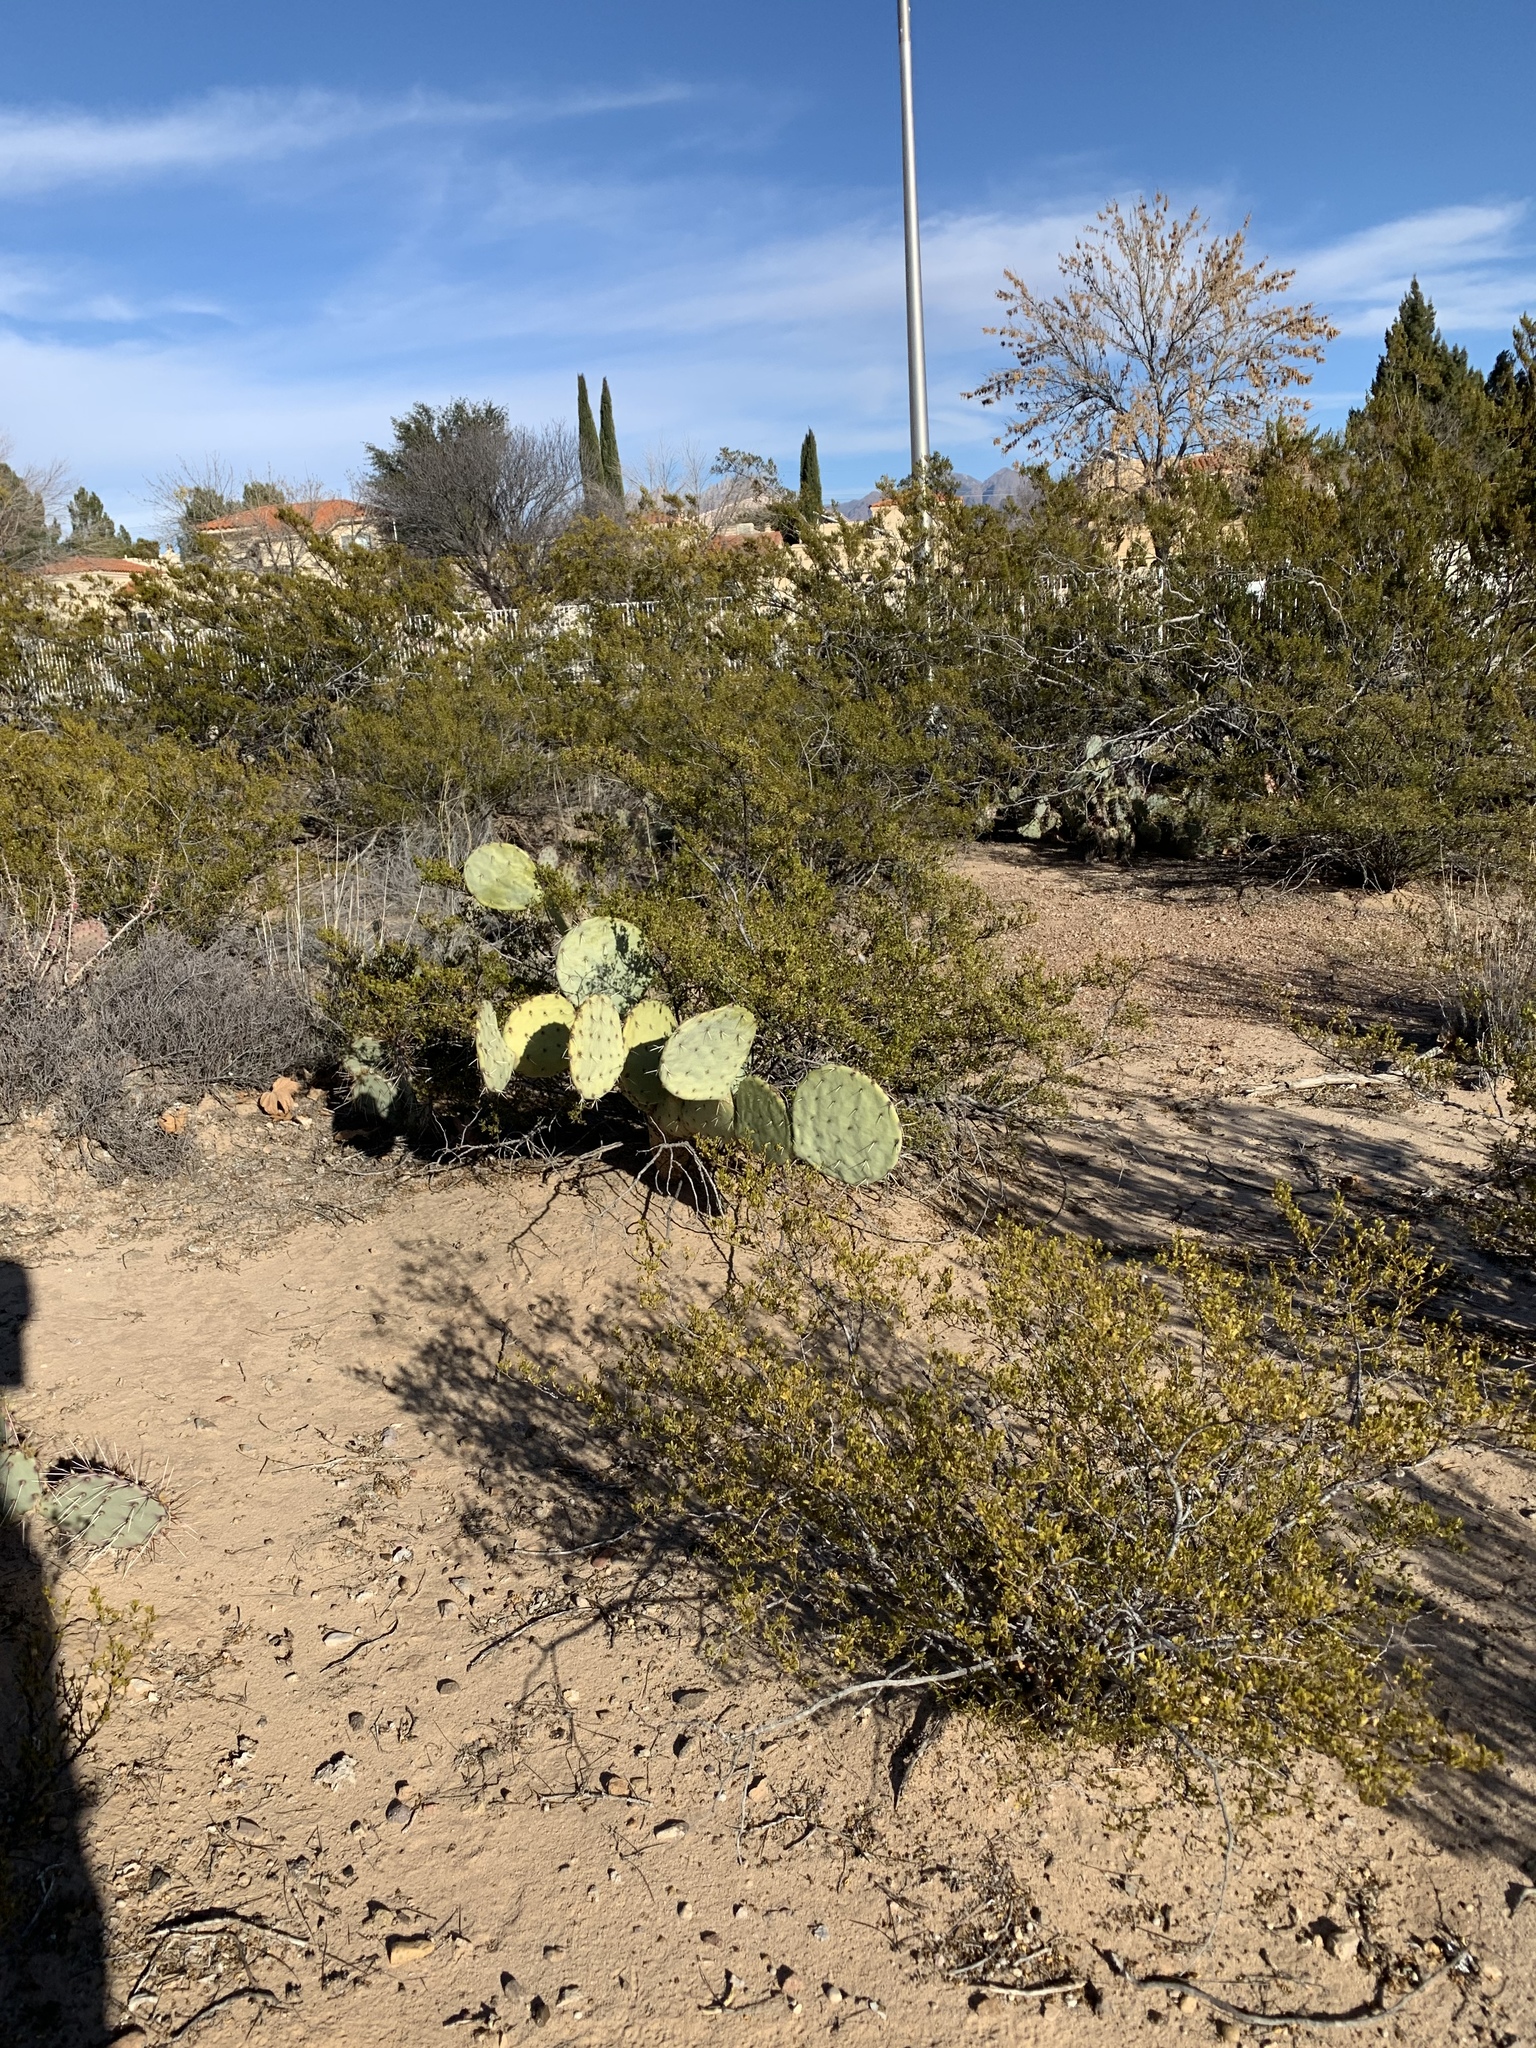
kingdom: Plantae
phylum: Tracheophyta
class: Magnoliopsida
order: Caryophyllales
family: Cactaceae
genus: Opuntia
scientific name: Opuntia engelmannii
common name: Cactus-apple
